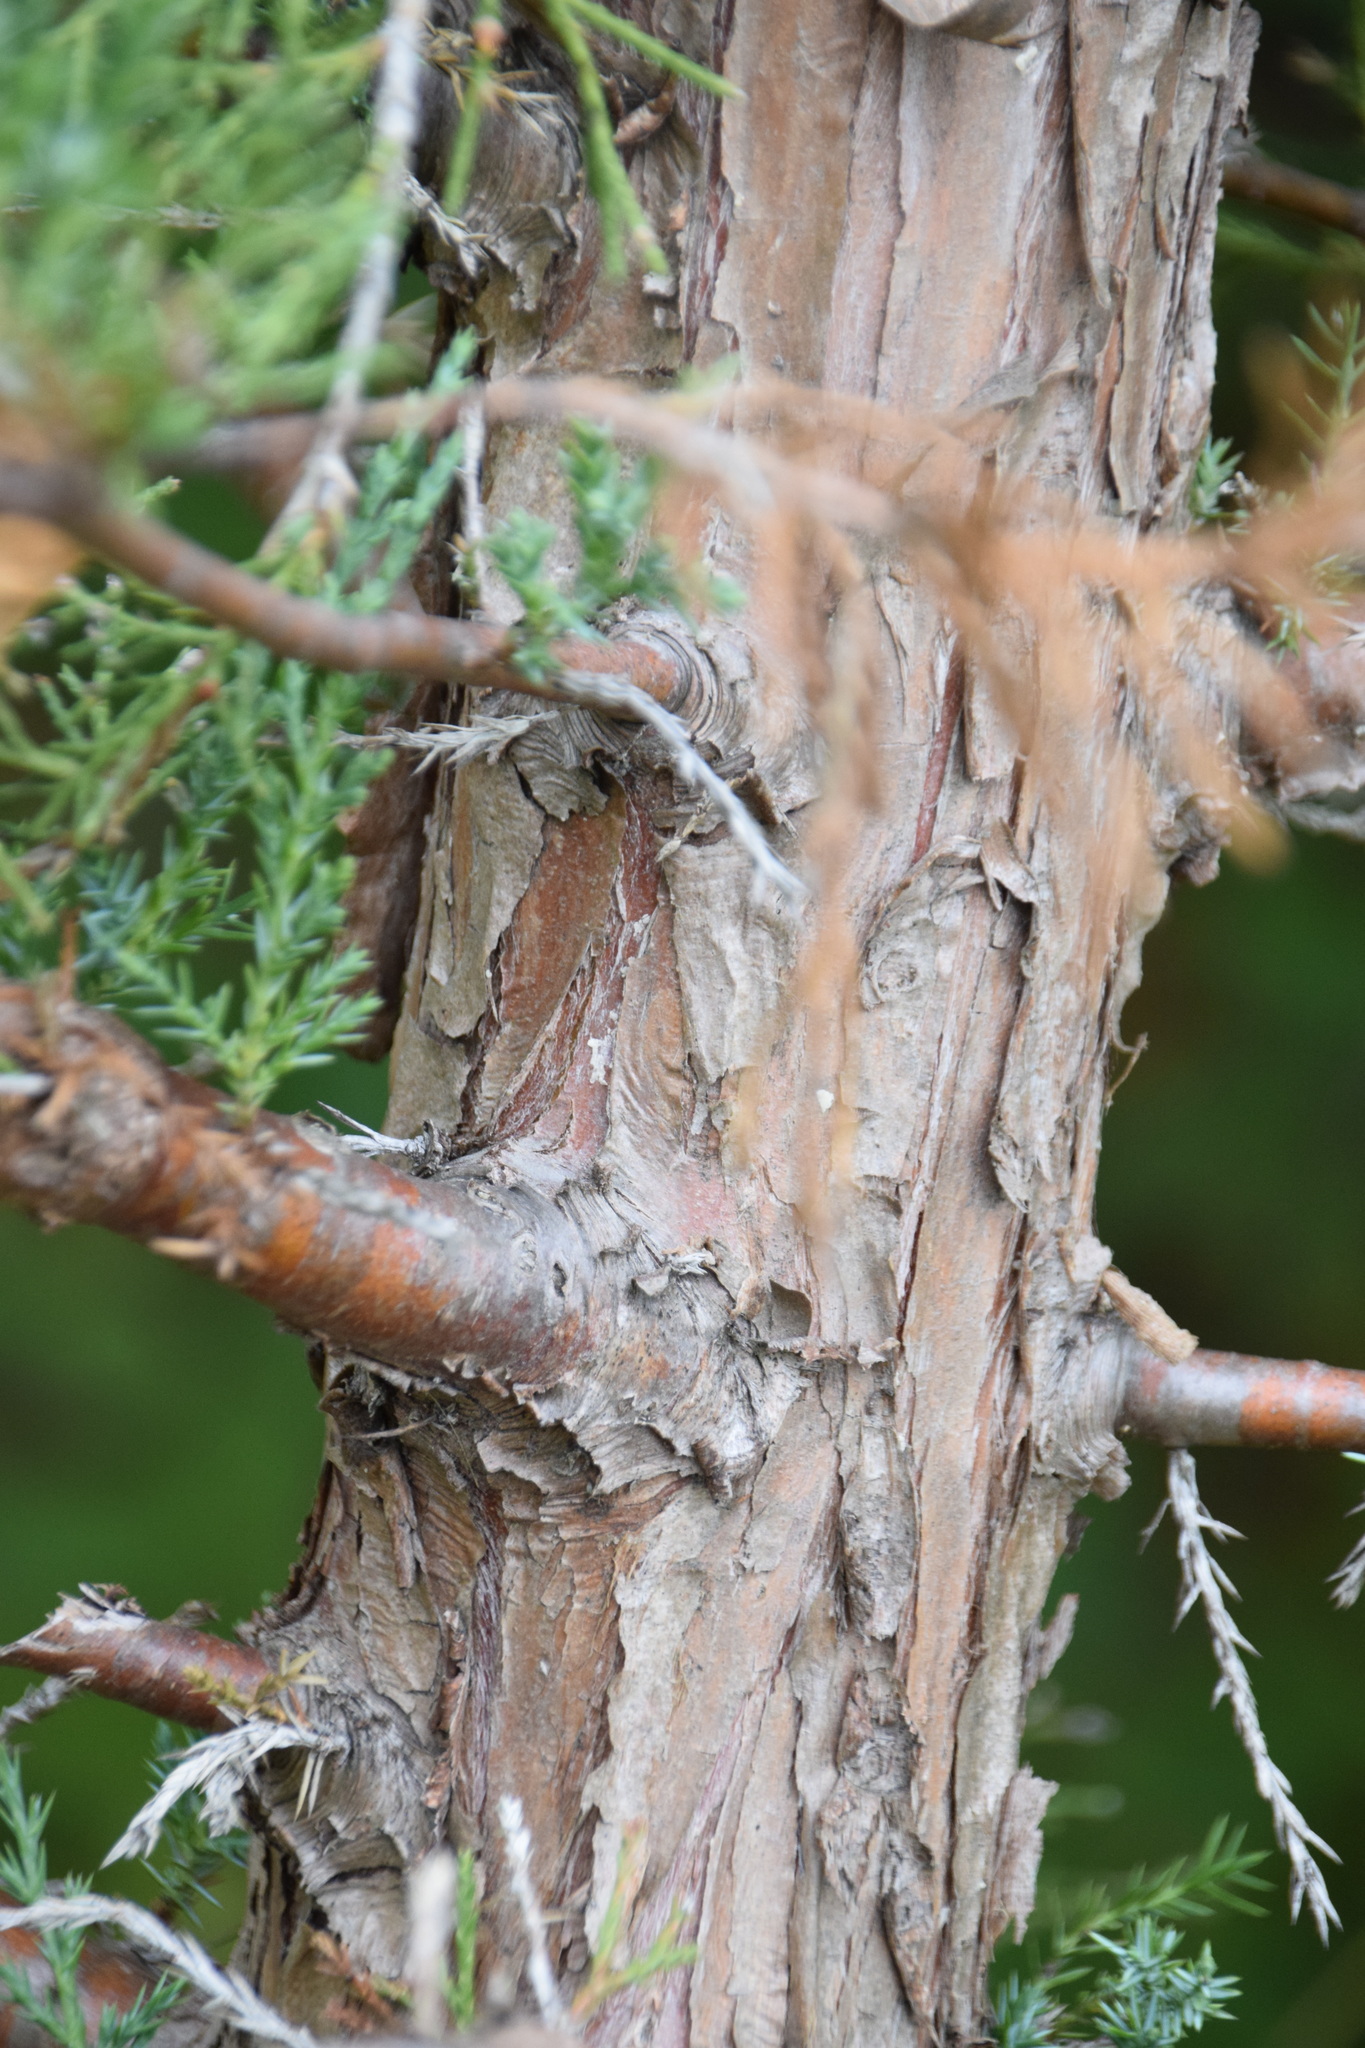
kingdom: Plantae
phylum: Tracheophyta
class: Pinopsida
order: Pinales
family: Cupressaceae
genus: Juniperus
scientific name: Juniperus virginiana
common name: Red juniper
